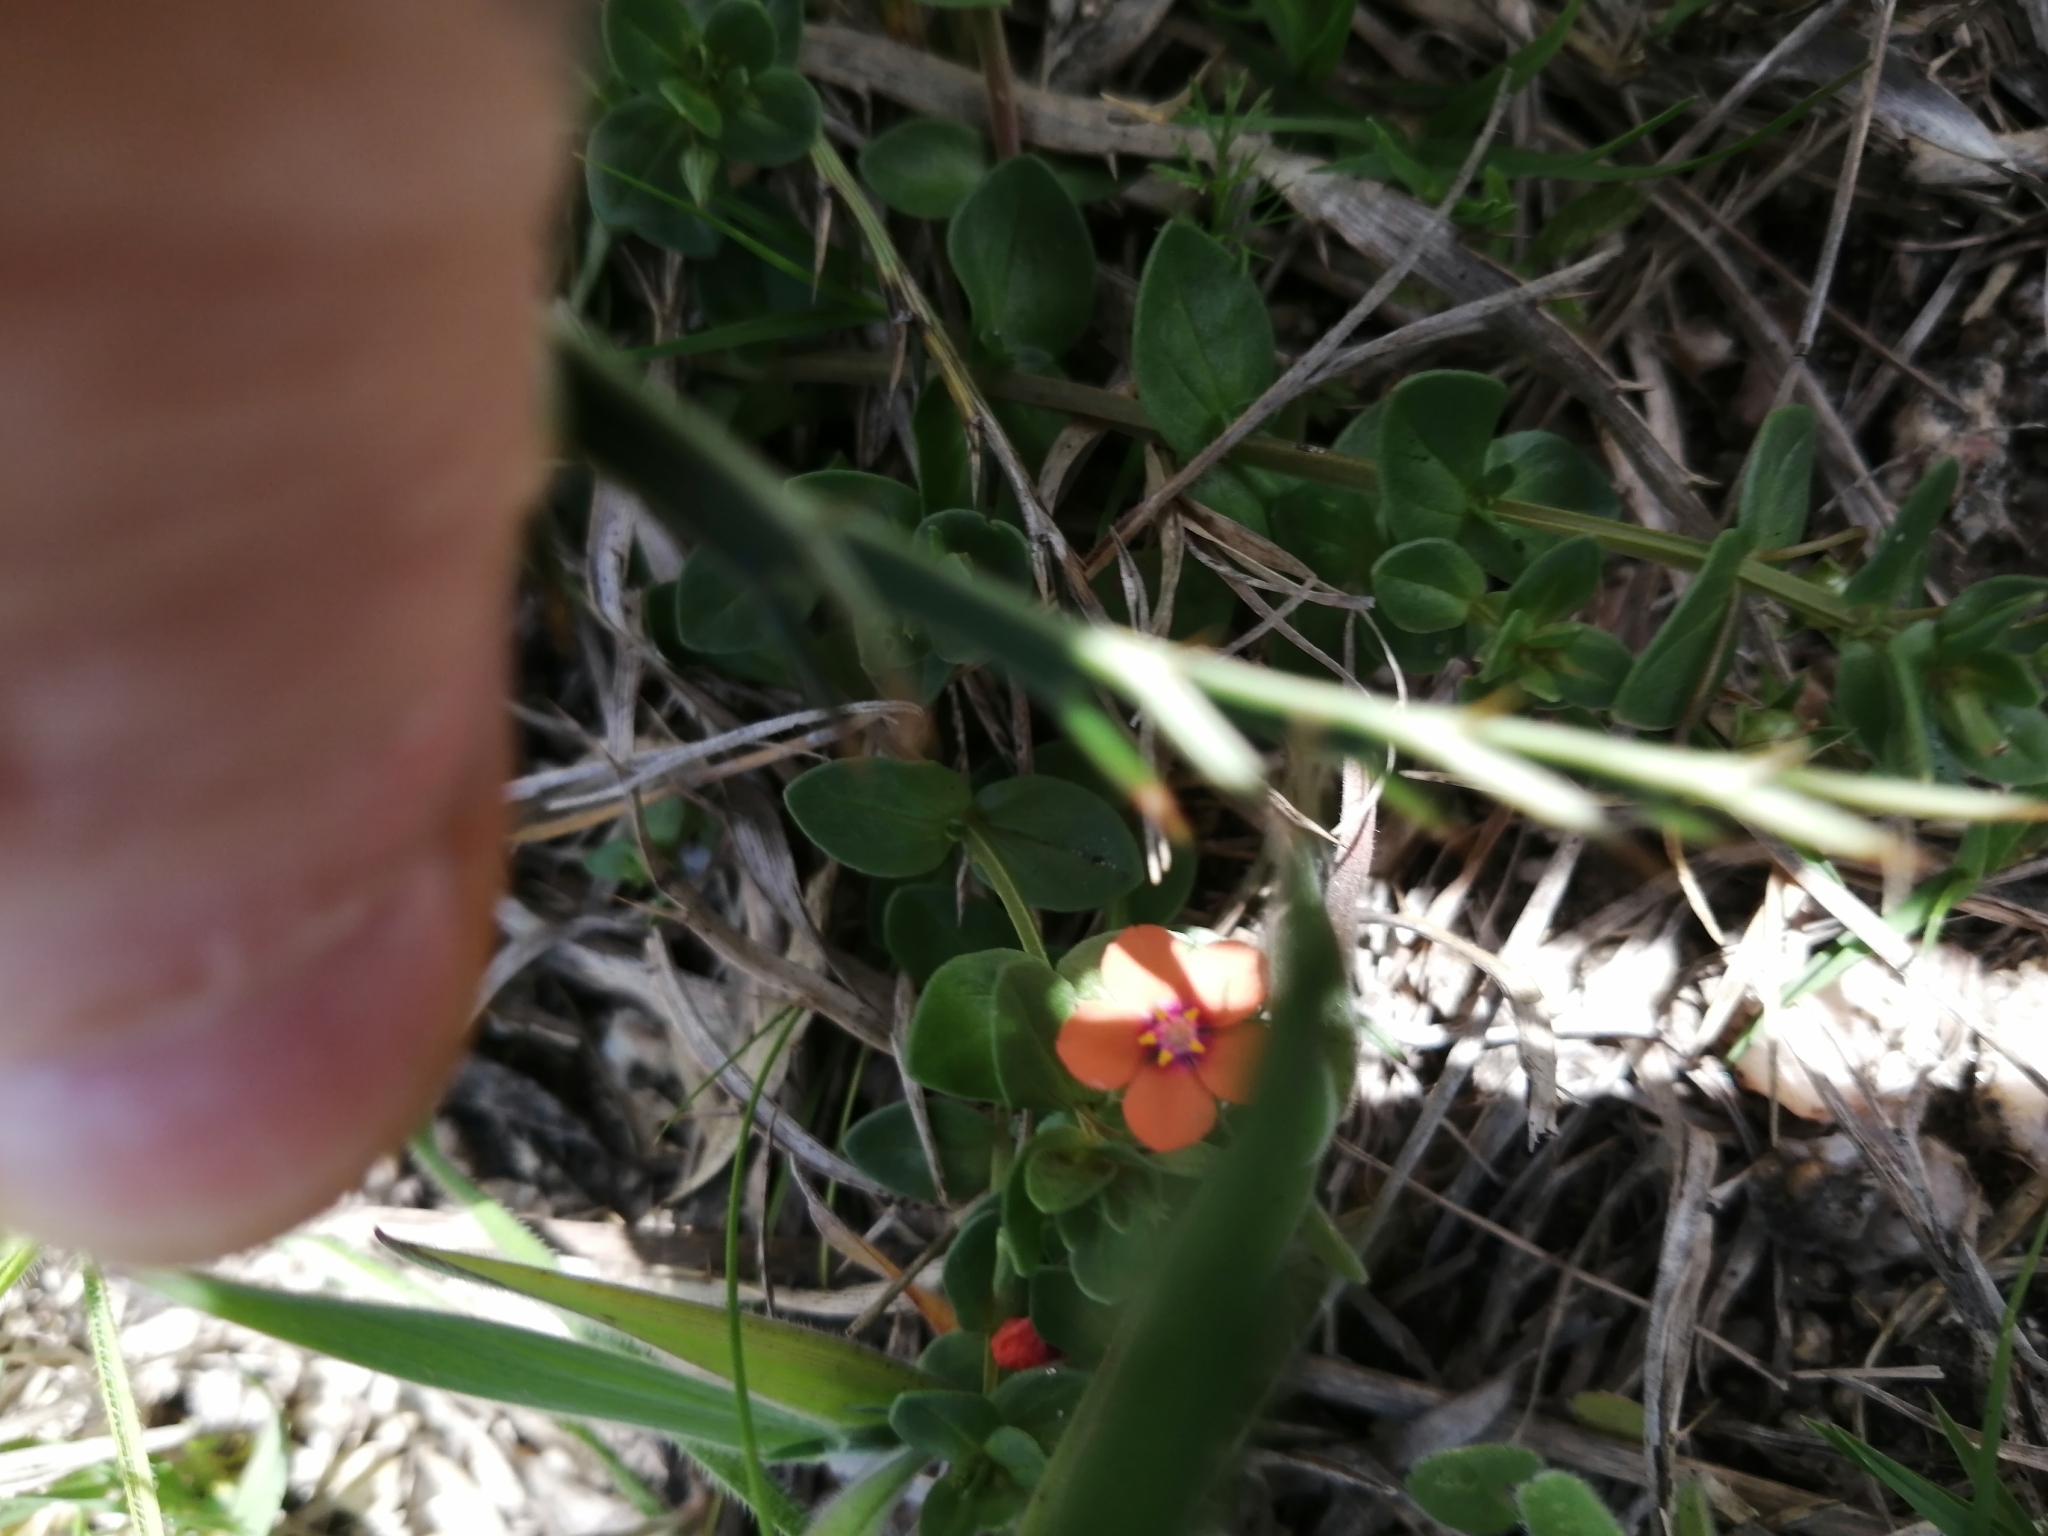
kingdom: Plantae
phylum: Tracheophyta
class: Magnoliopsida
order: Ericales
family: Primulaceae
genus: Lysimachia
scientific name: Lysimachia arvensis
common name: Scarlet pimpernel
